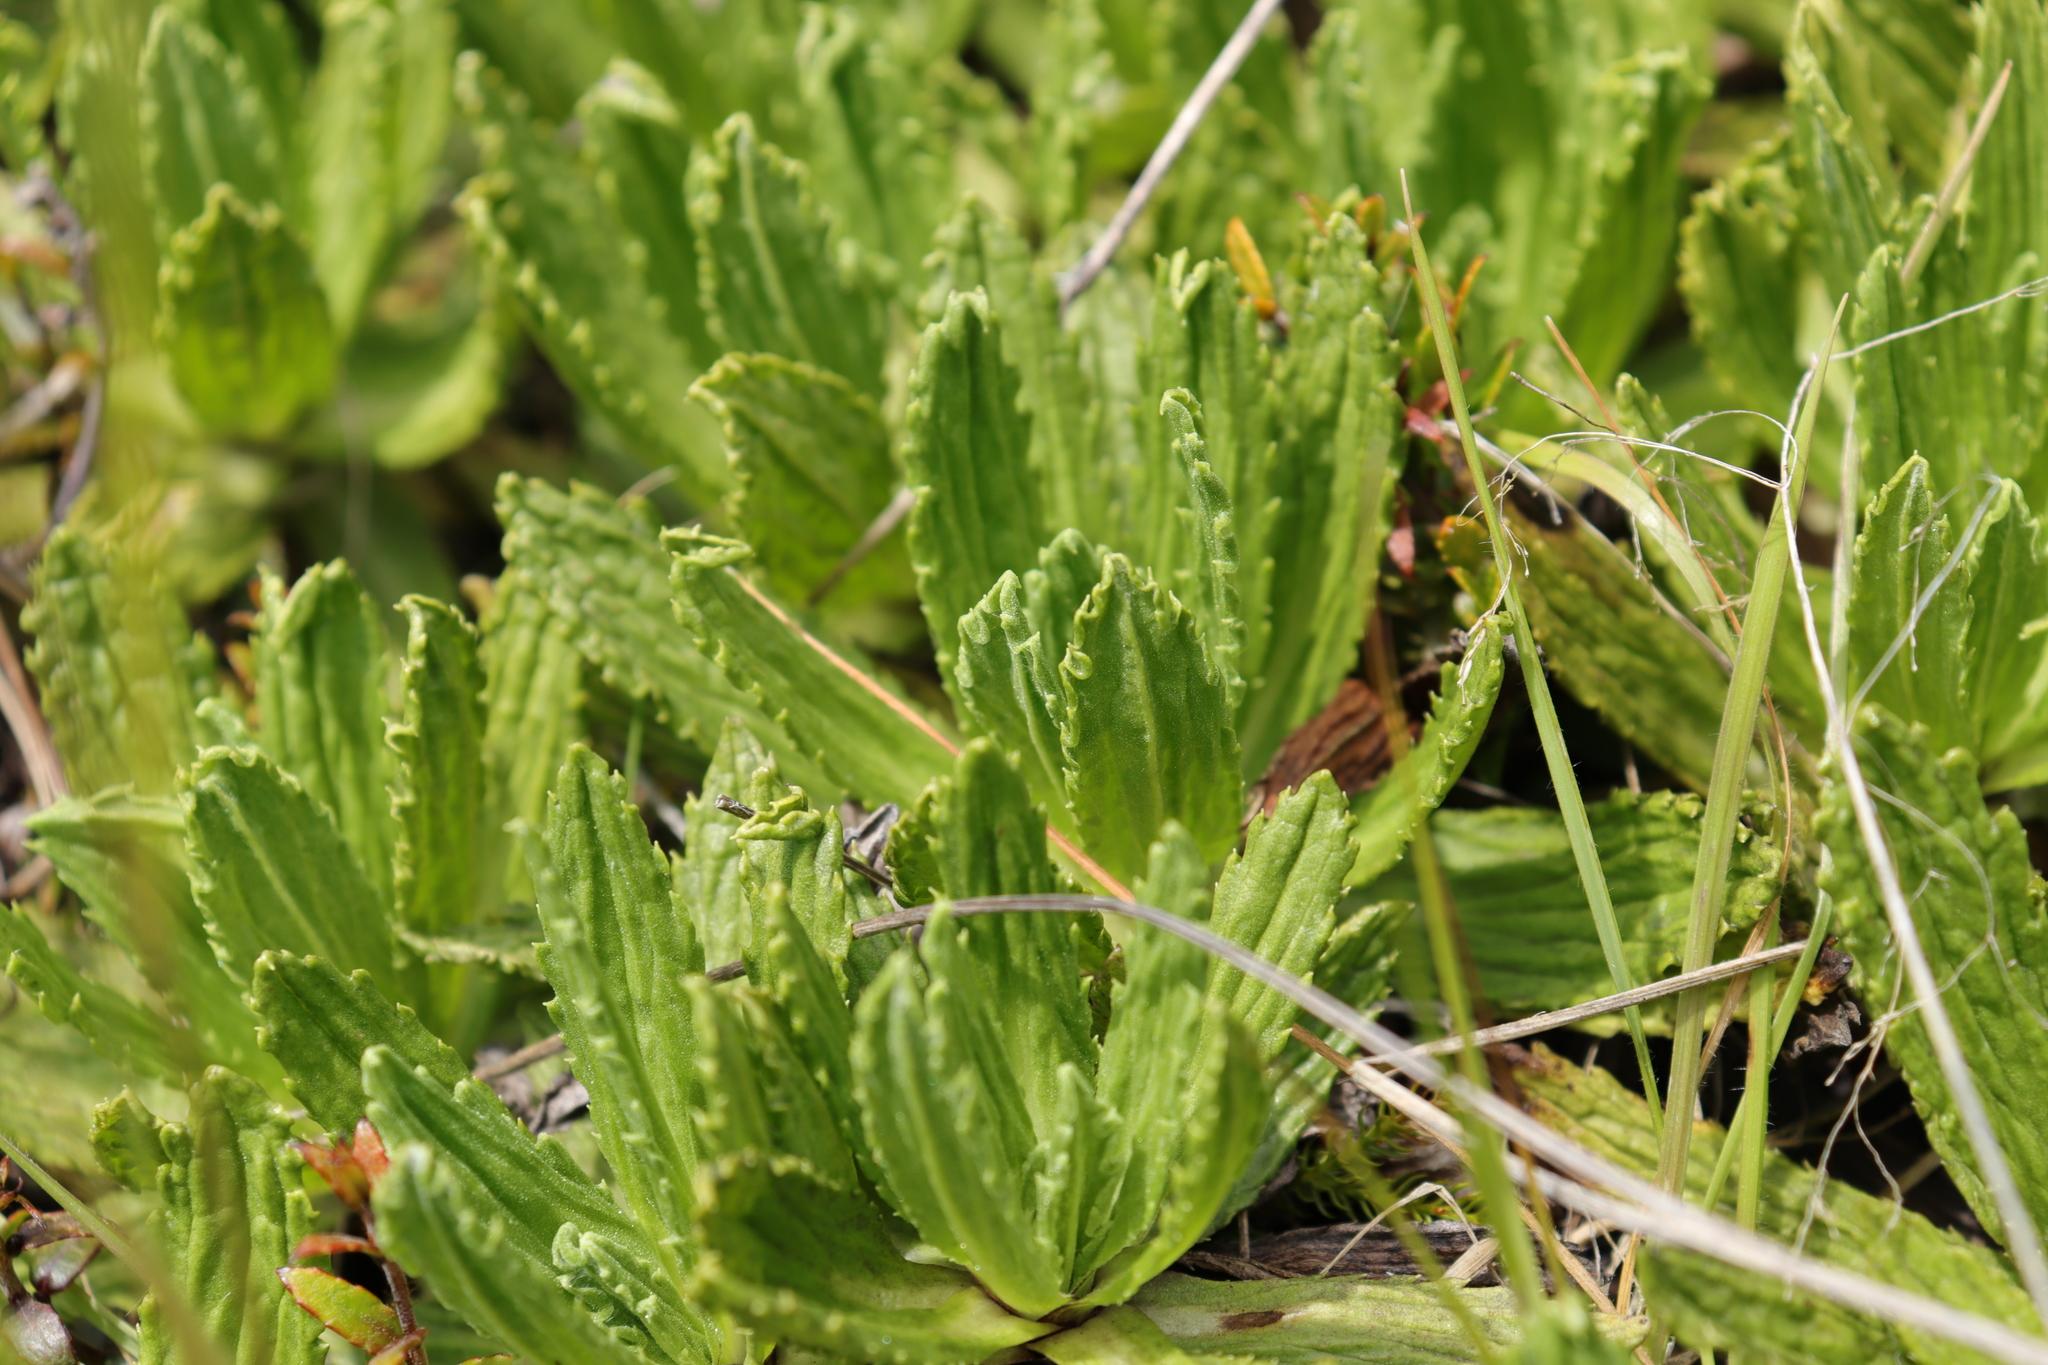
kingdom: Plantae
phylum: Tracheophyta
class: Magnoliopsida
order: Asterales
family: Asteraceae
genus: Celmisia
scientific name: Celmisia prorepens
